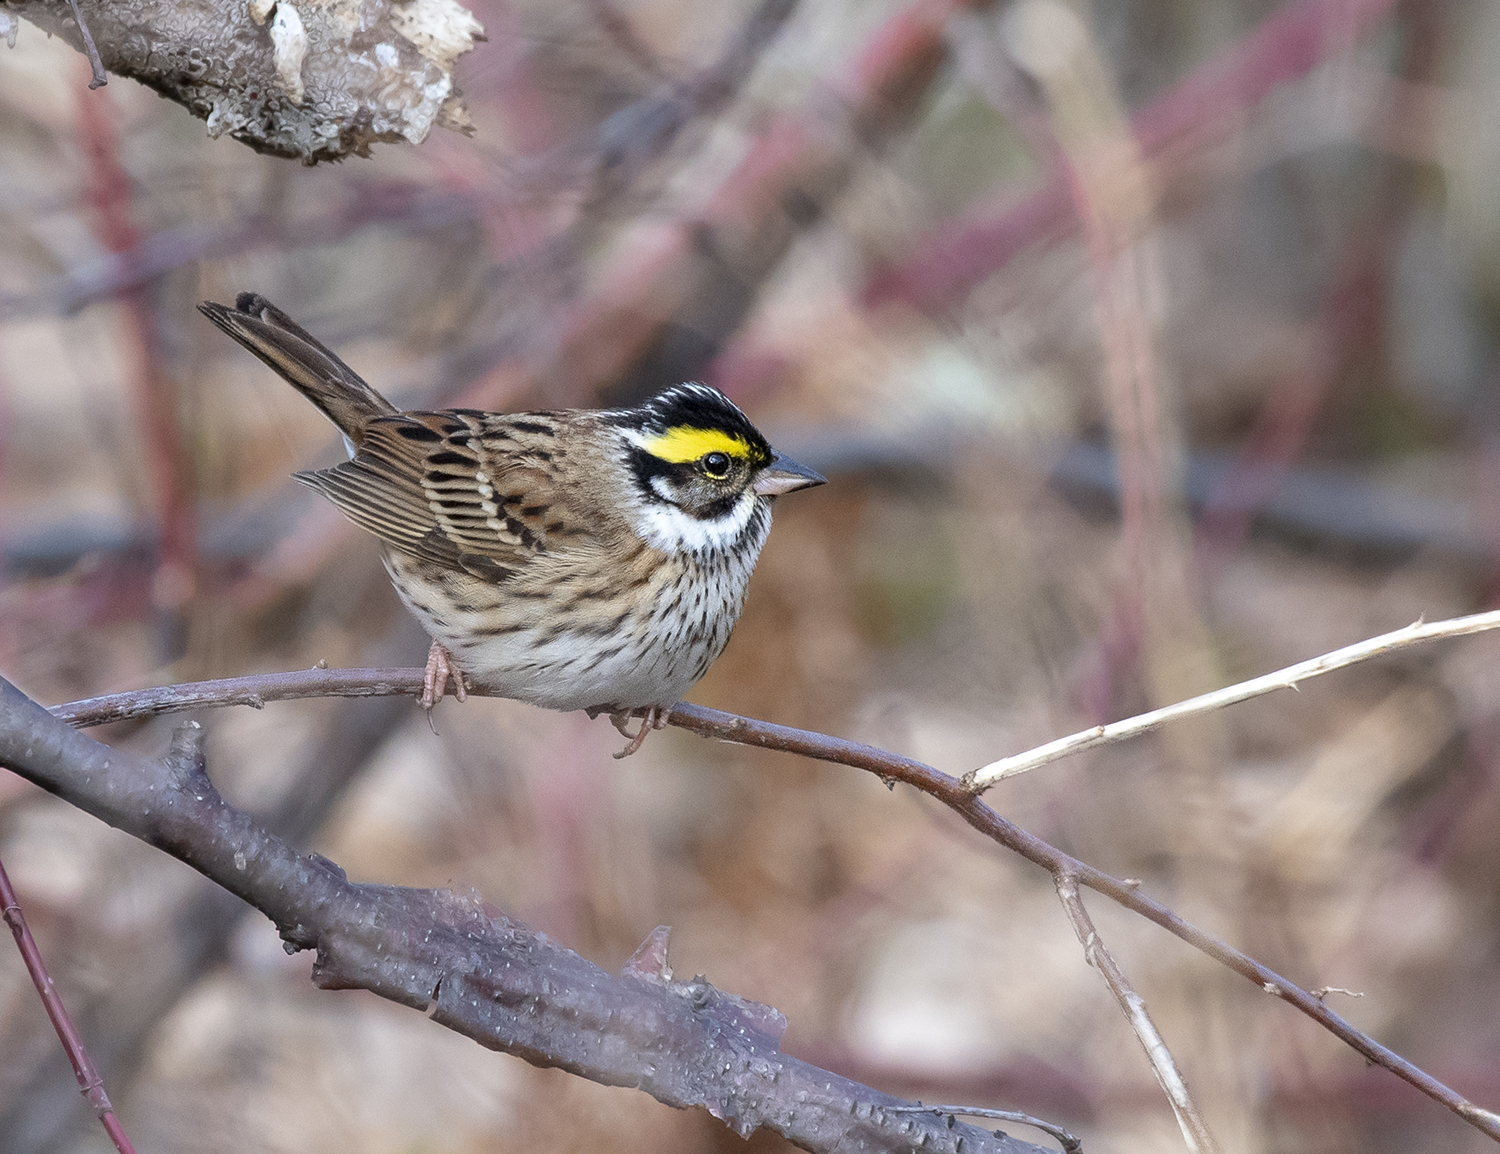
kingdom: Animalia
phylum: Chordata
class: Aves
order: Passeriformes
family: Emberizidae
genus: Emberiza
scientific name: Emberiza chrysophrys
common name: Yellow-browed bunting
